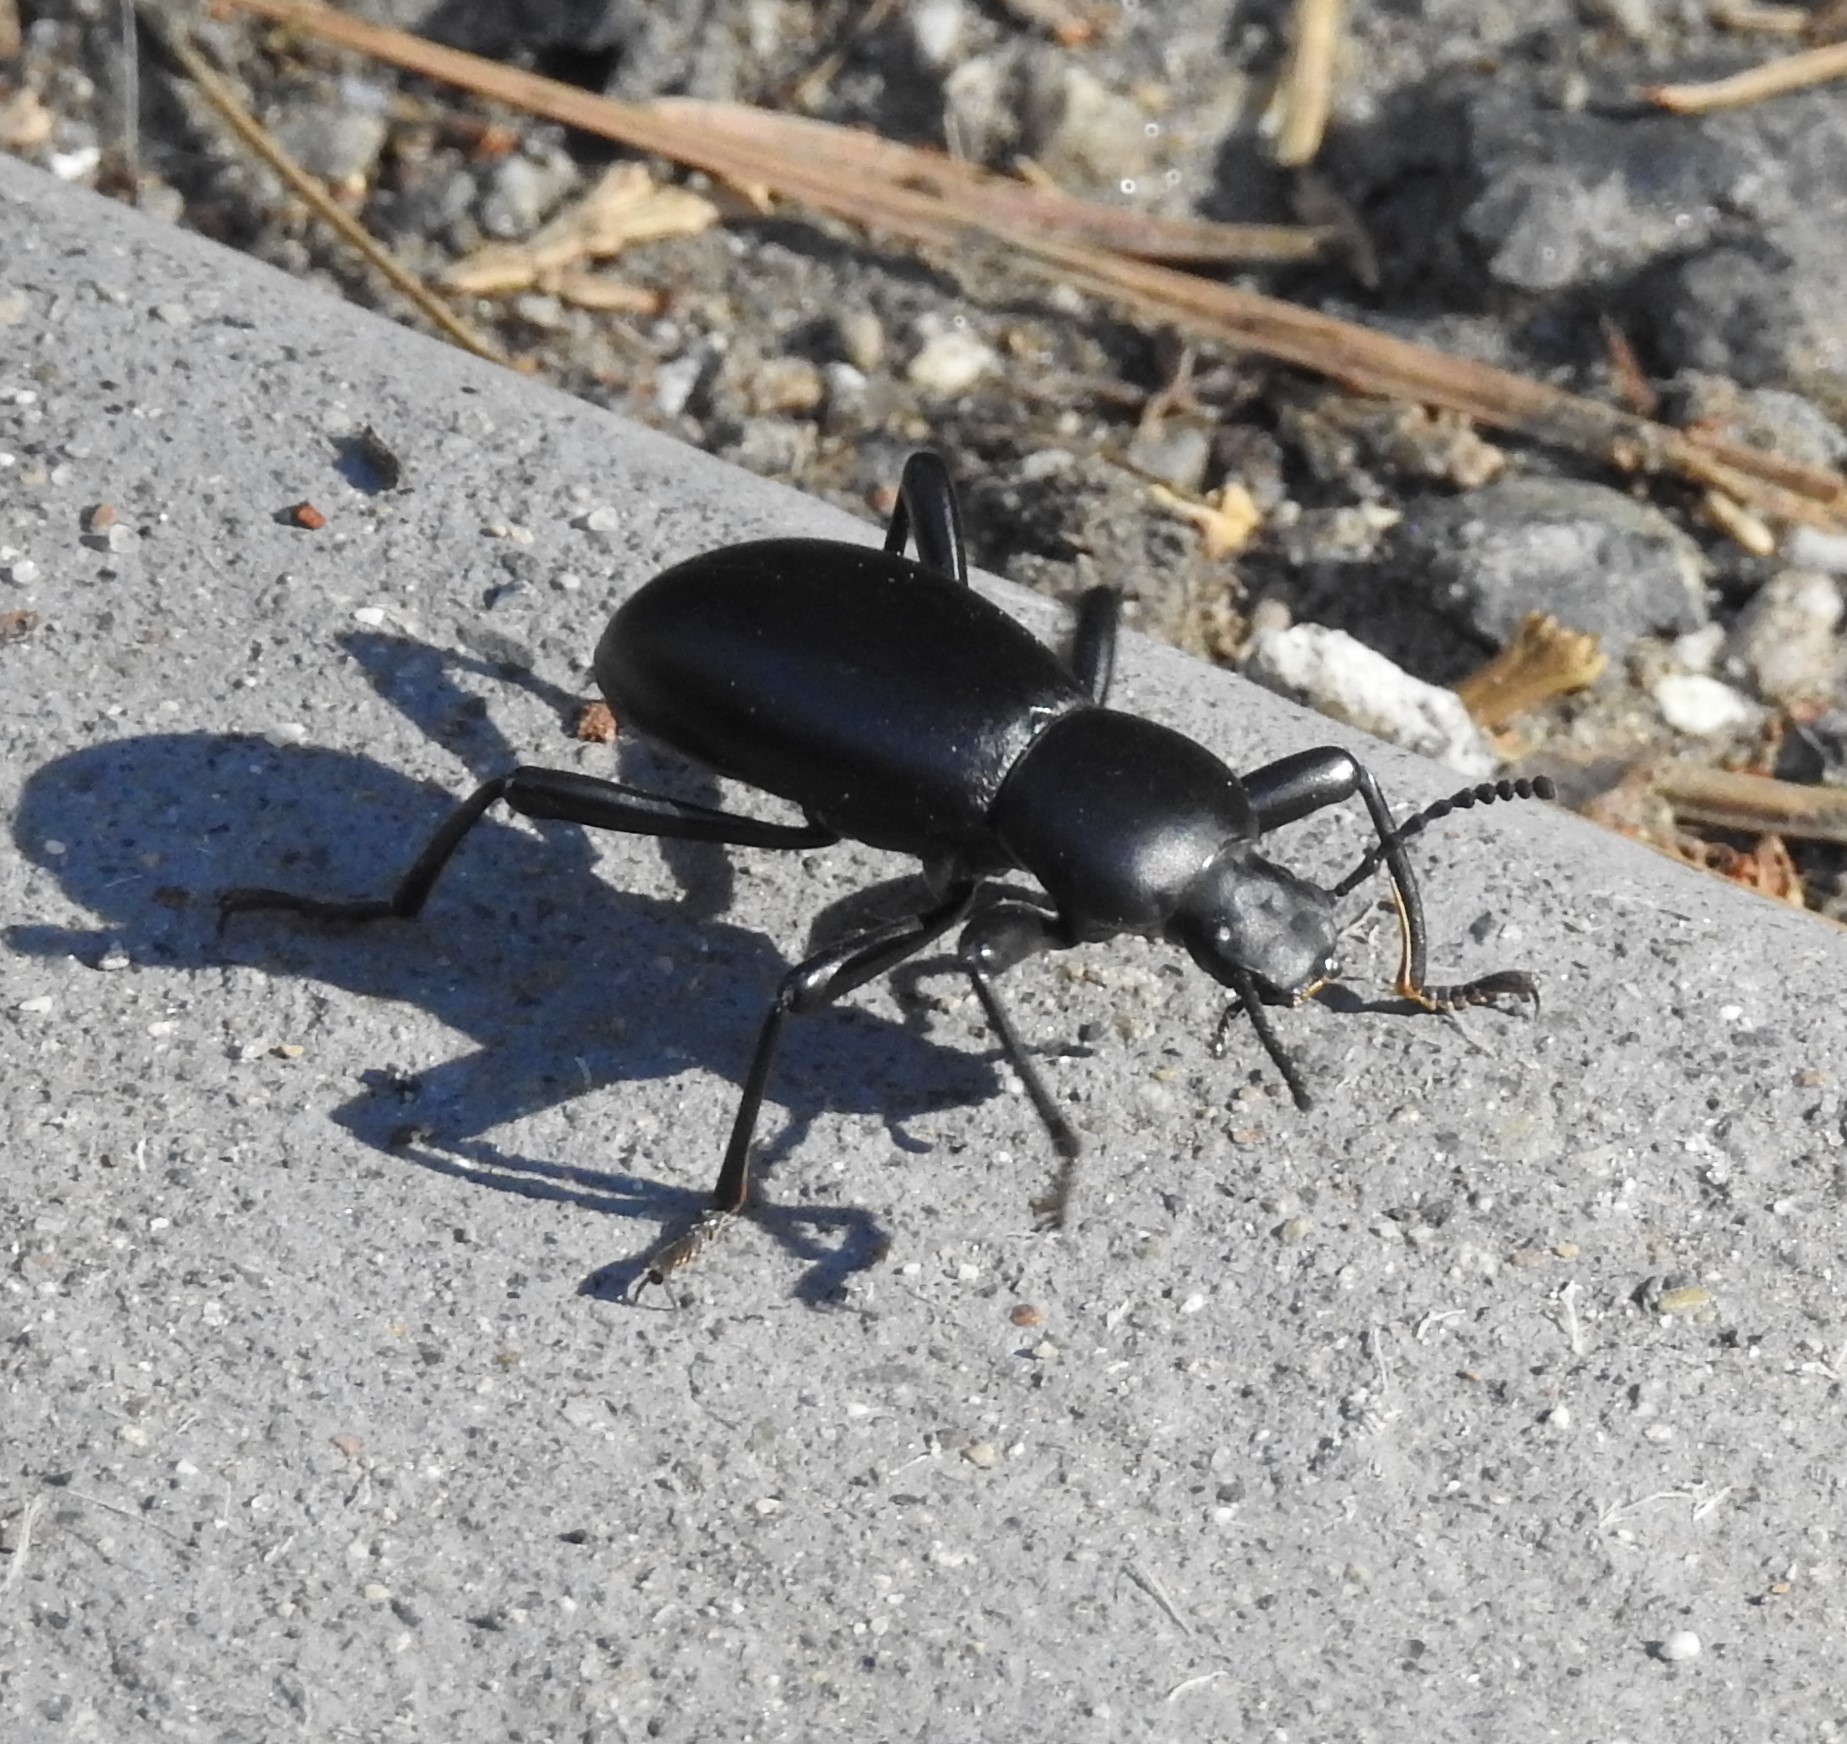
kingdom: Animalia
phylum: Arthropoda
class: Insecta
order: Coleoptera
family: Tenebrionidae
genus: Coelocnemis
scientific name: Coelocnemis magna
